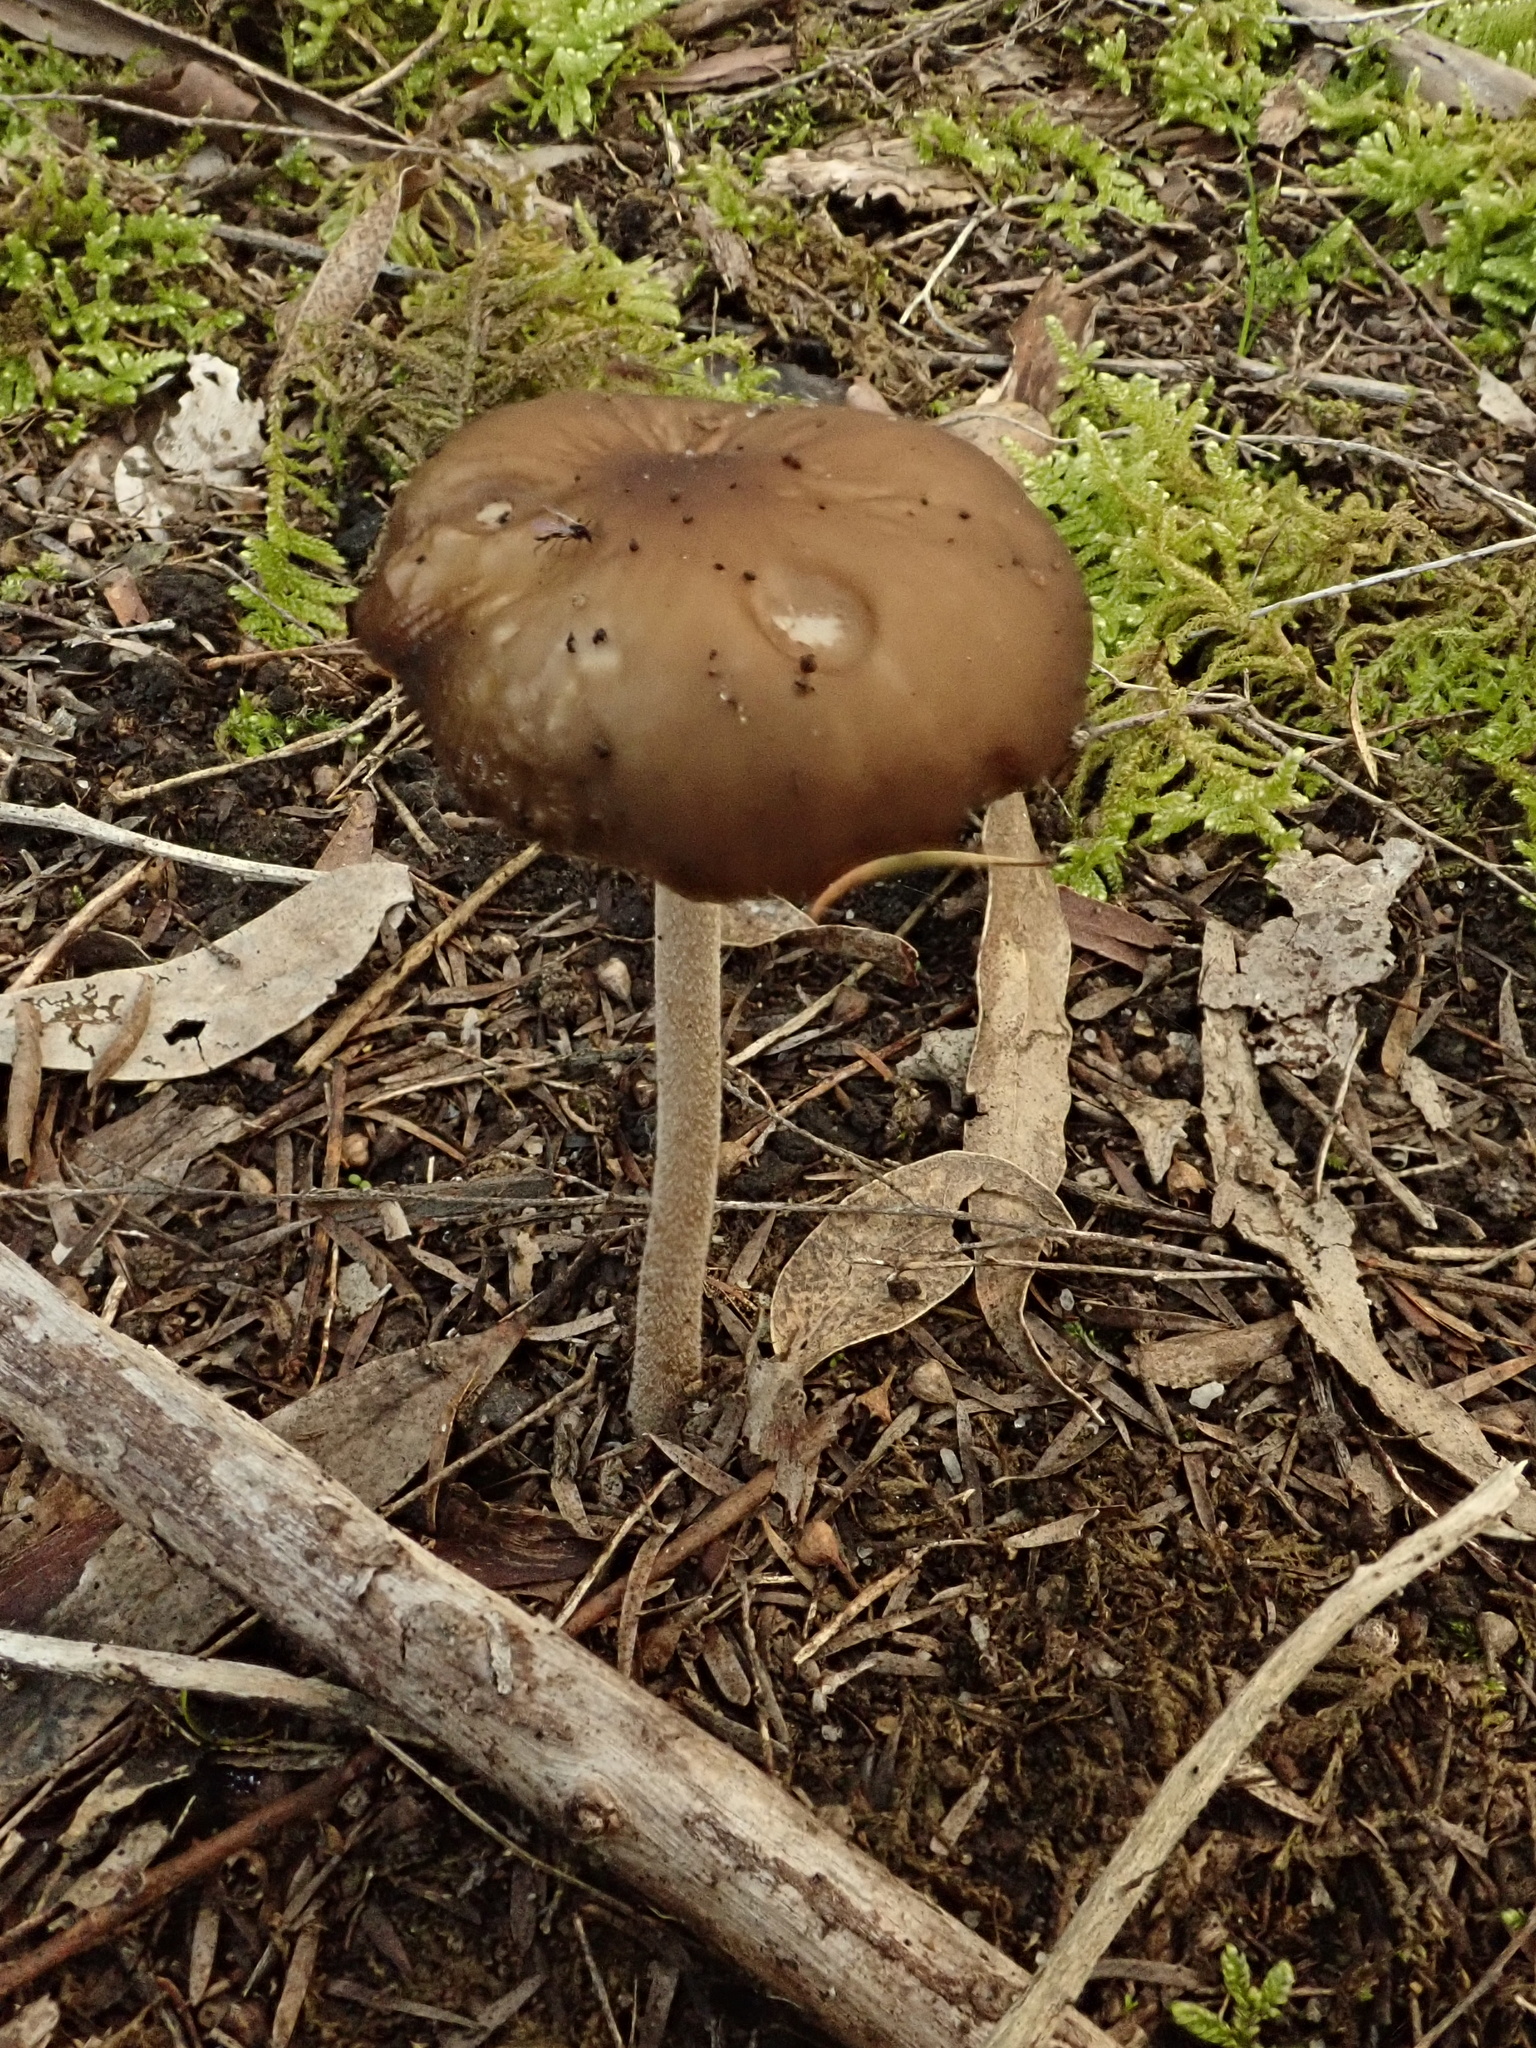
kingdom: Fungi
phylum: Basidiomycota
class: Agaricomycetes
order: Agaricales
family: Physalacriaceae
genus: Hymenopellis
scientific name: Hymenopellis gigaspora
